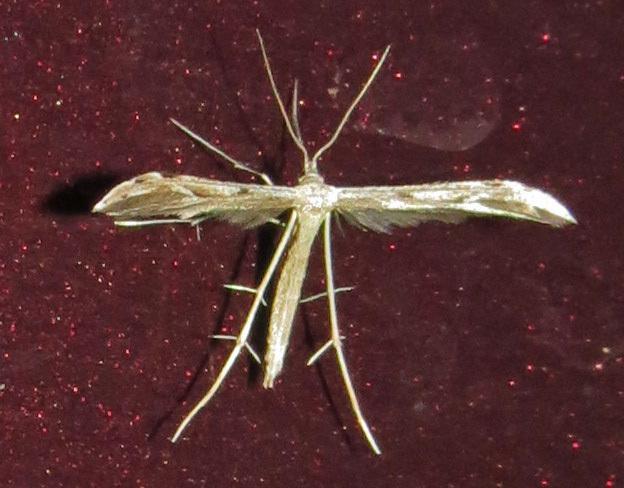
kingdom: Animalia
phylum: Arthropoda
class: Insecta
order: Lepidoptera
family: Pterophoridae
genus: Pselnophorus
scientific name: Pselnophorus belfragei
